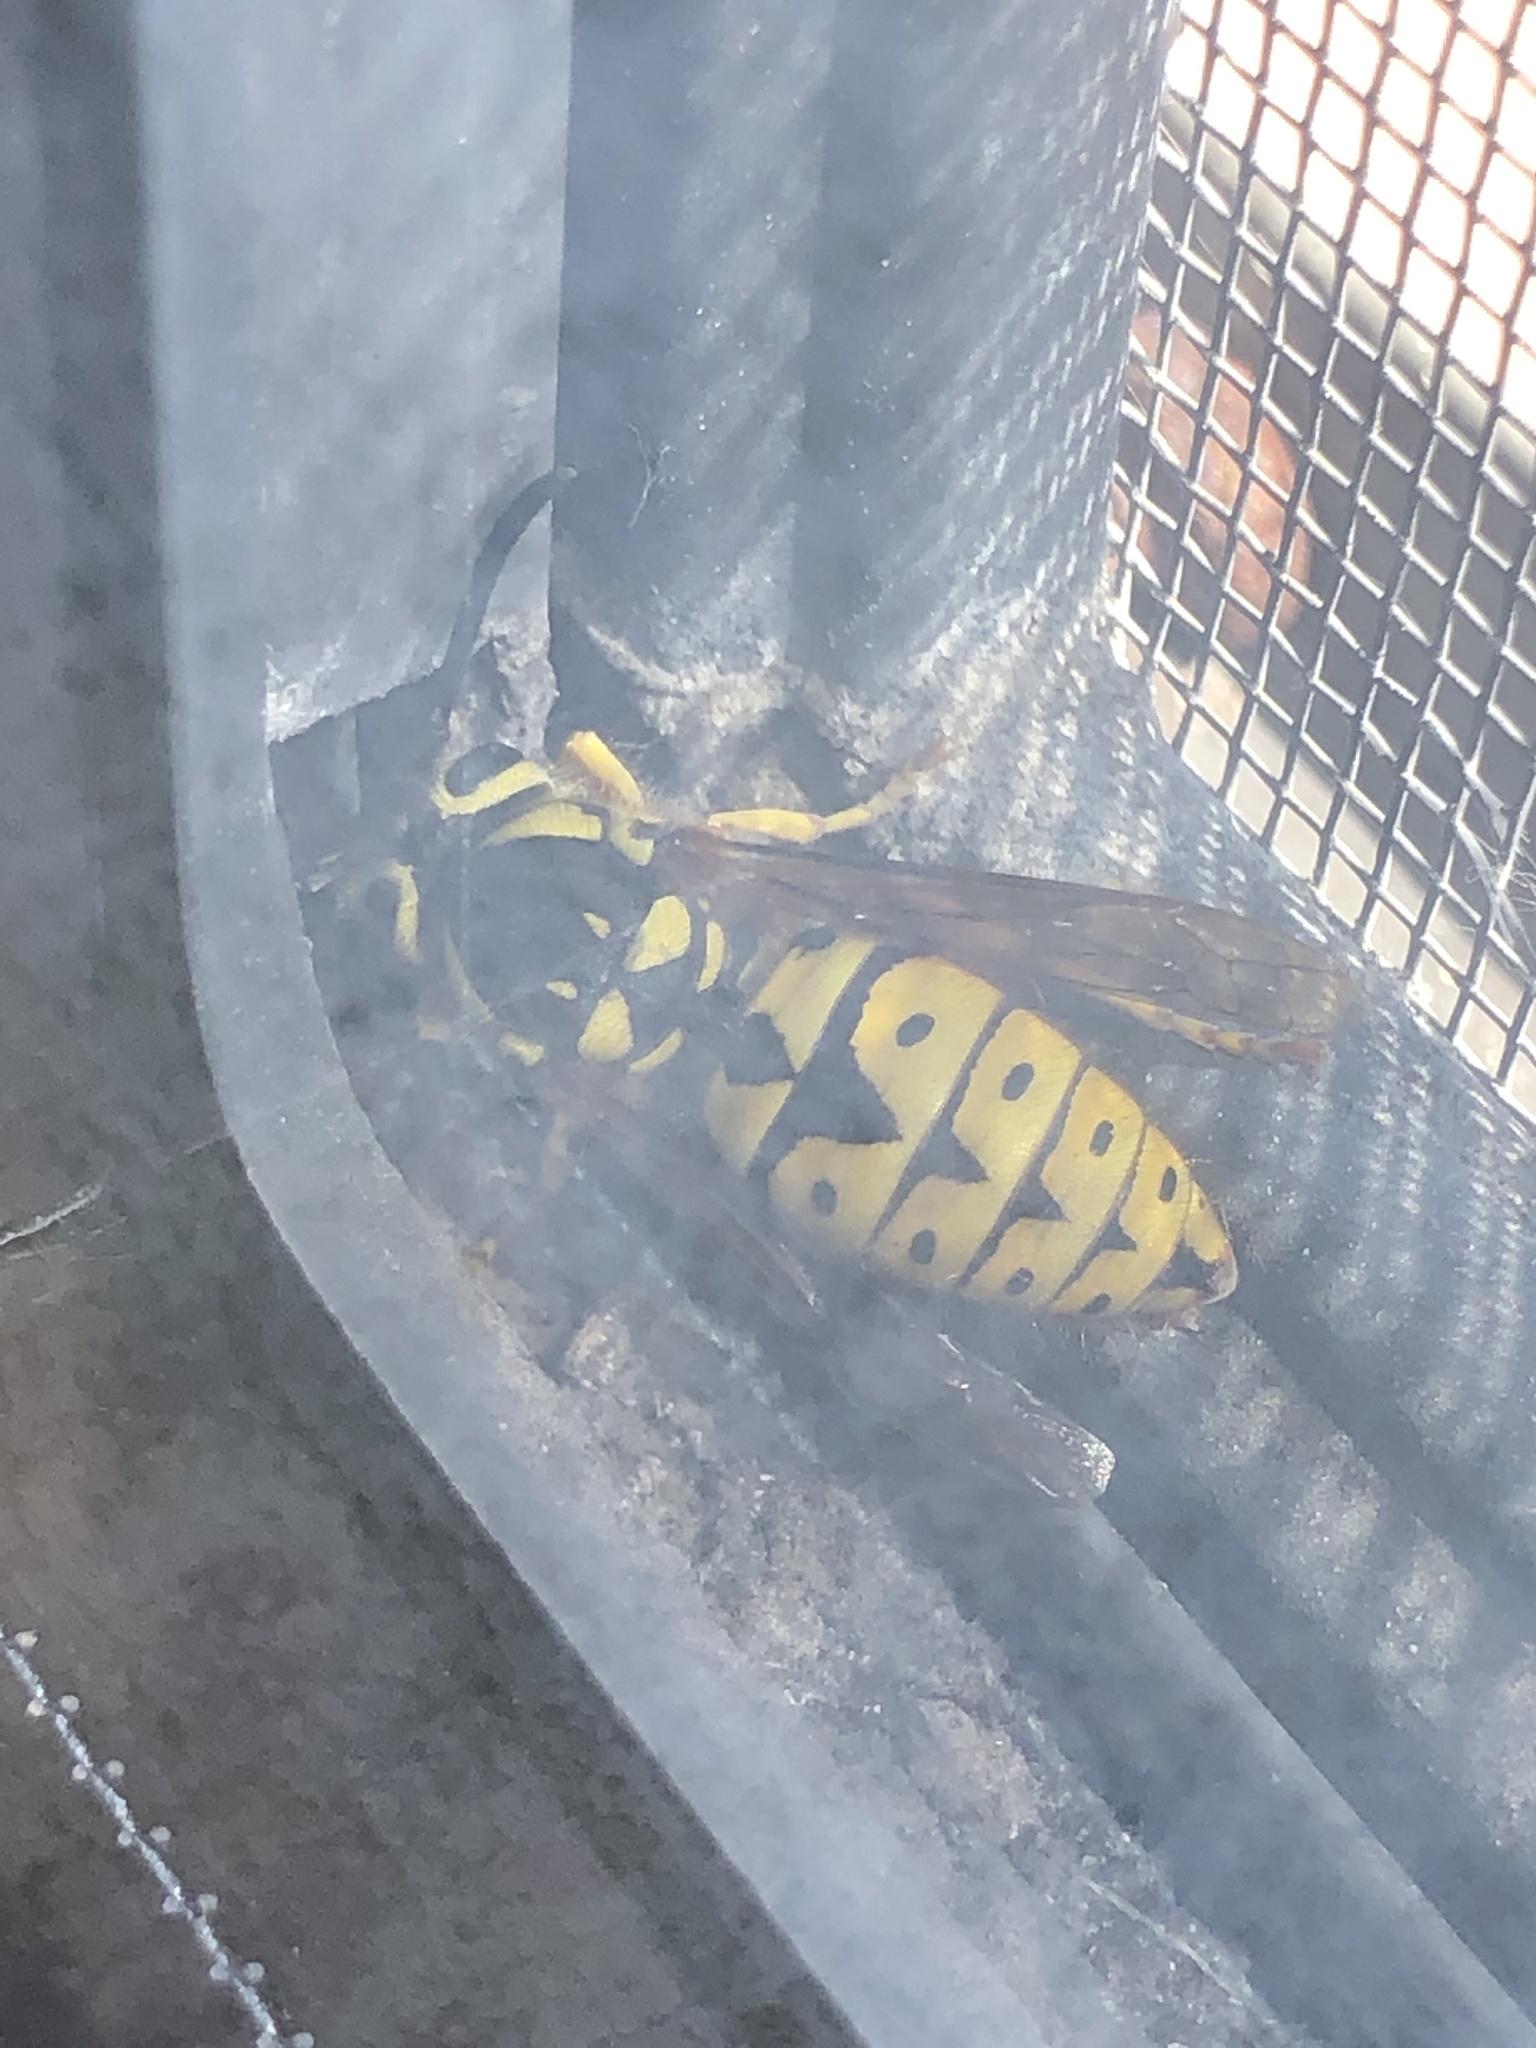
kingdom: Animalia
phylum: Arthropoda
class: Insecta
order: Hymenoptera
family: Vespidae
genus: Vespula
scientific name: Vespula pensylvanica
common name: Western yellowjacket
